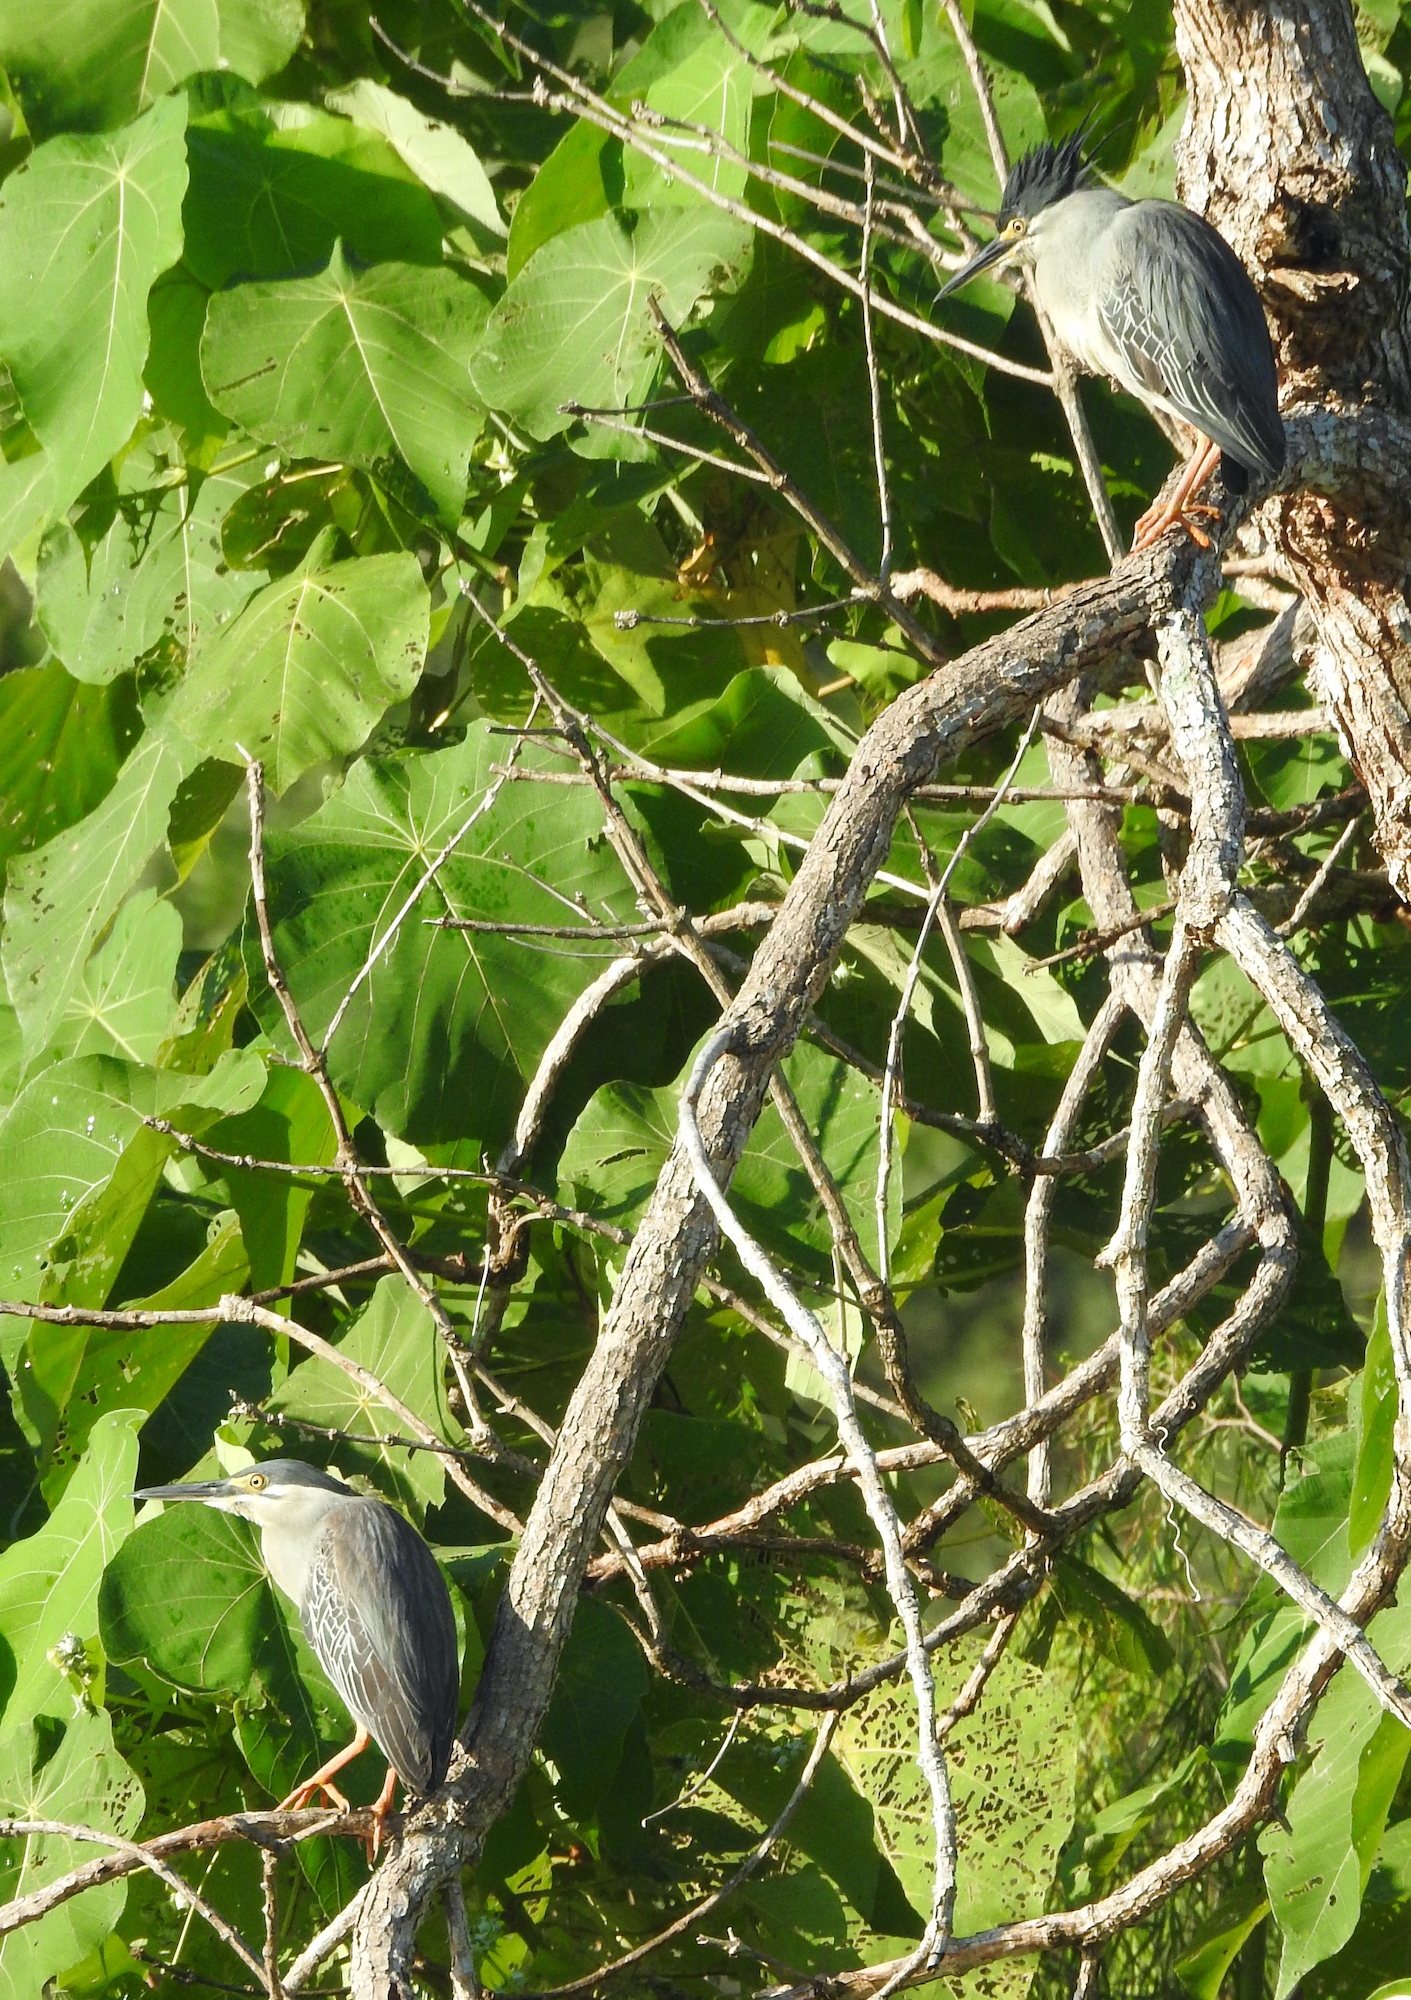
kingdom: Animalia
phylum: Chordata
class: Aves
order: Pelecaniformes
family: Ardeidae
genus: Butorides
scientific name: Butorides striata
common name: Striated heron
